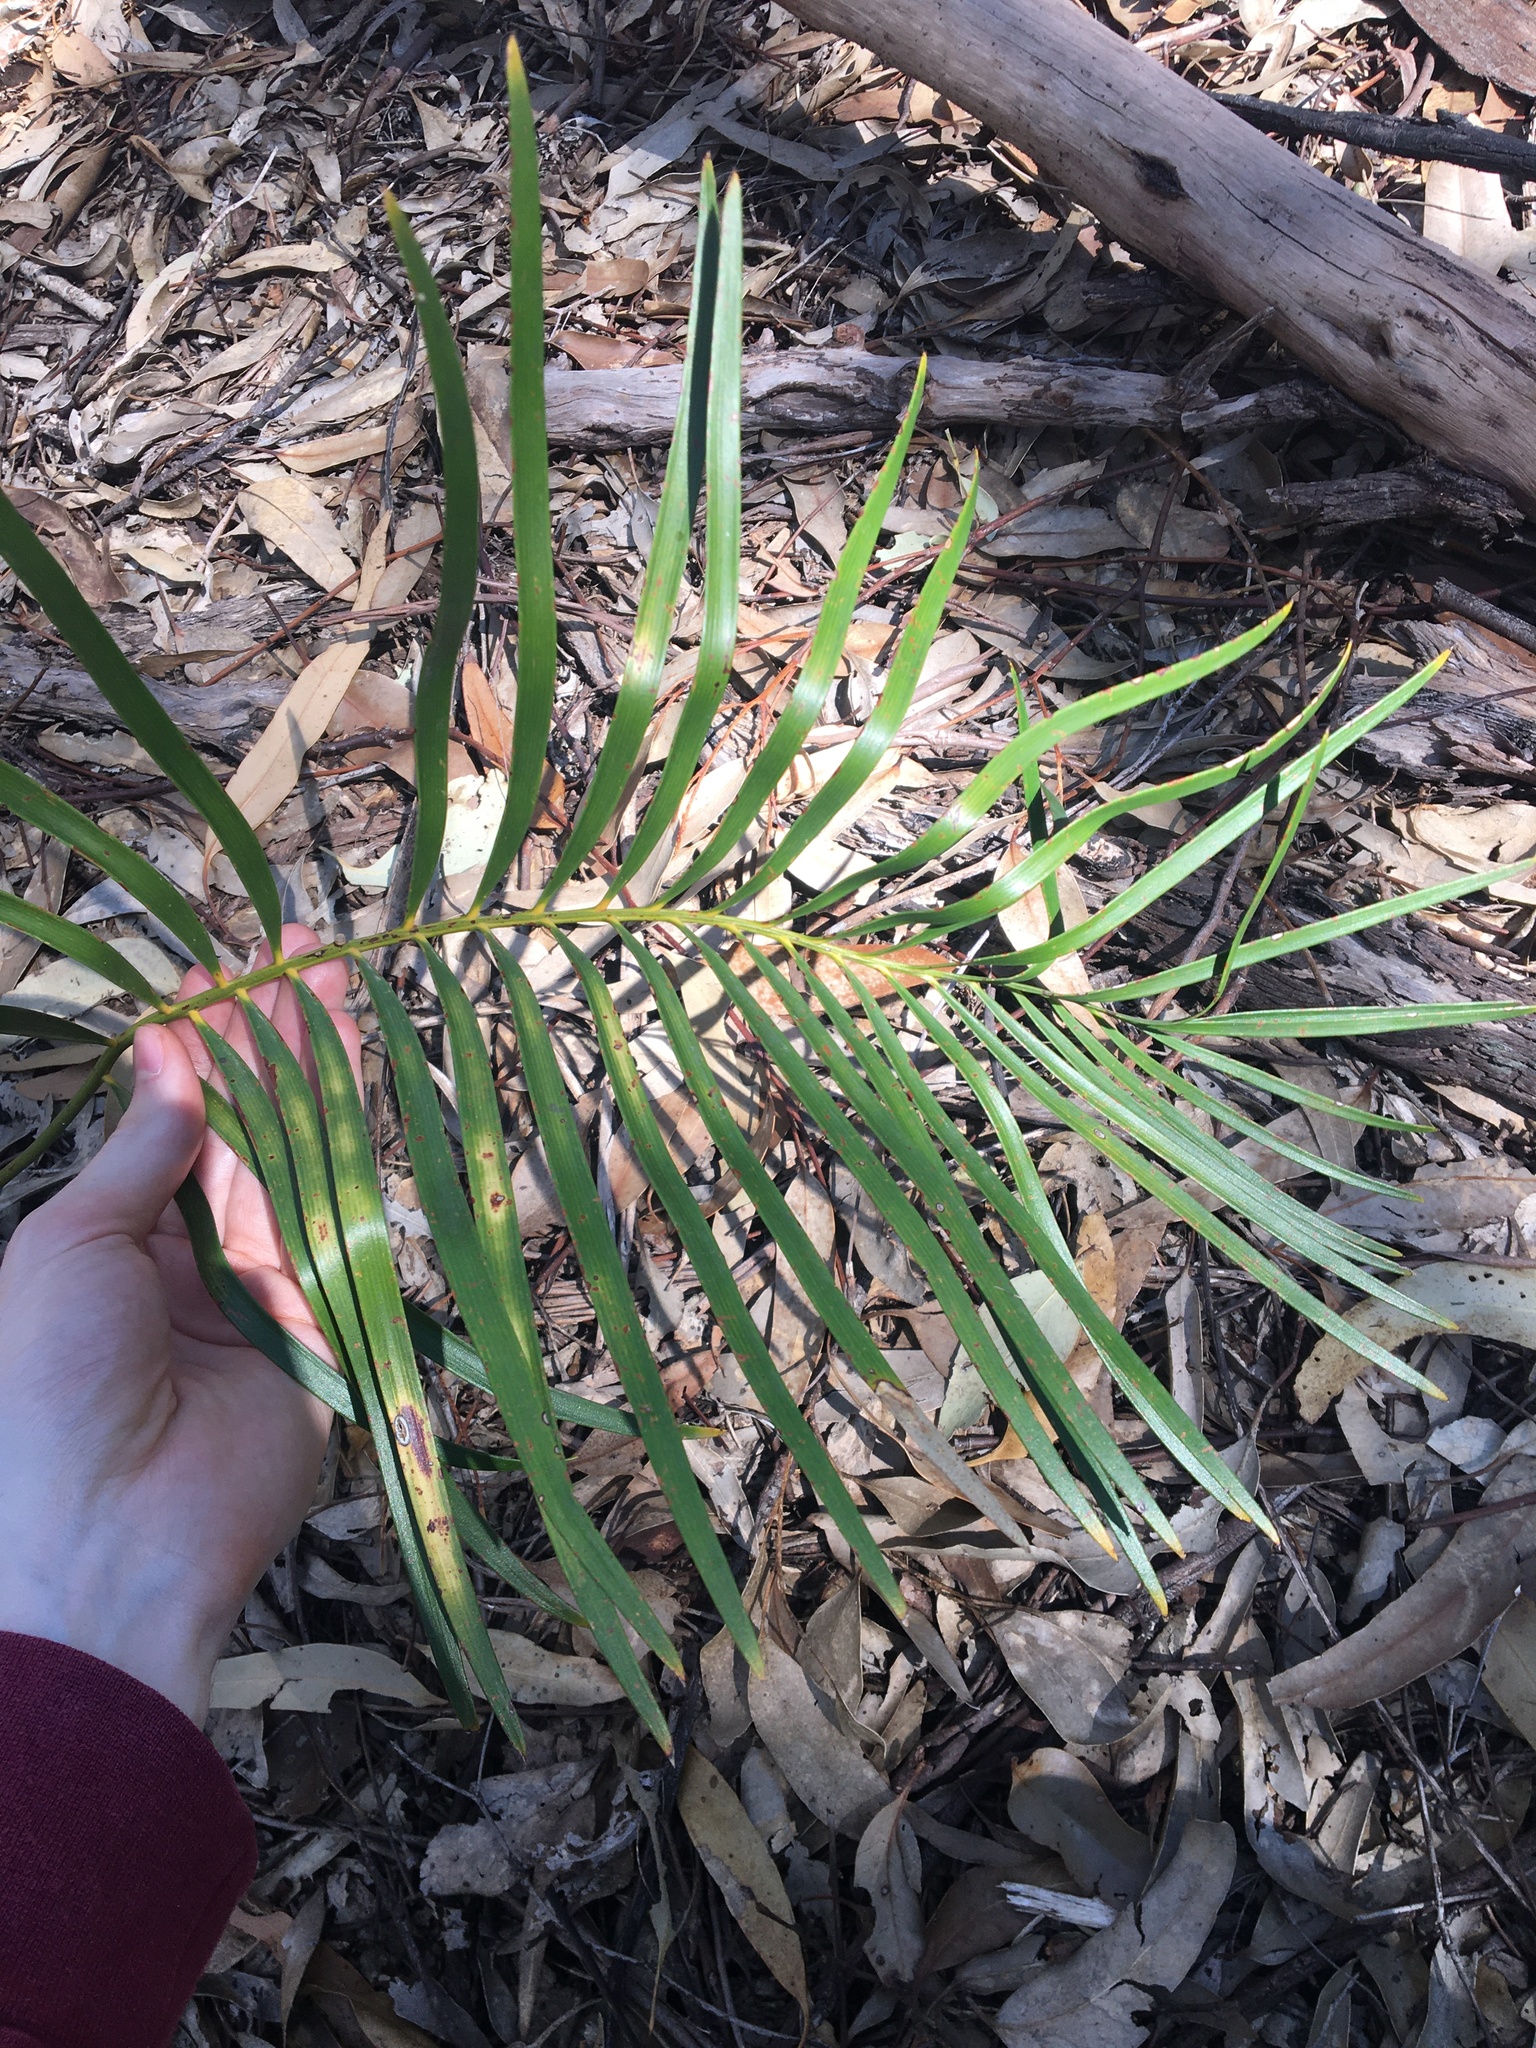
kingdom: Plantae
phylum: Tracheophyta
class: Cycadopsida
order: Cycadales
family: Zamiaceae
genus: Macrozamia
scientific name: Macrozamia spiralis
